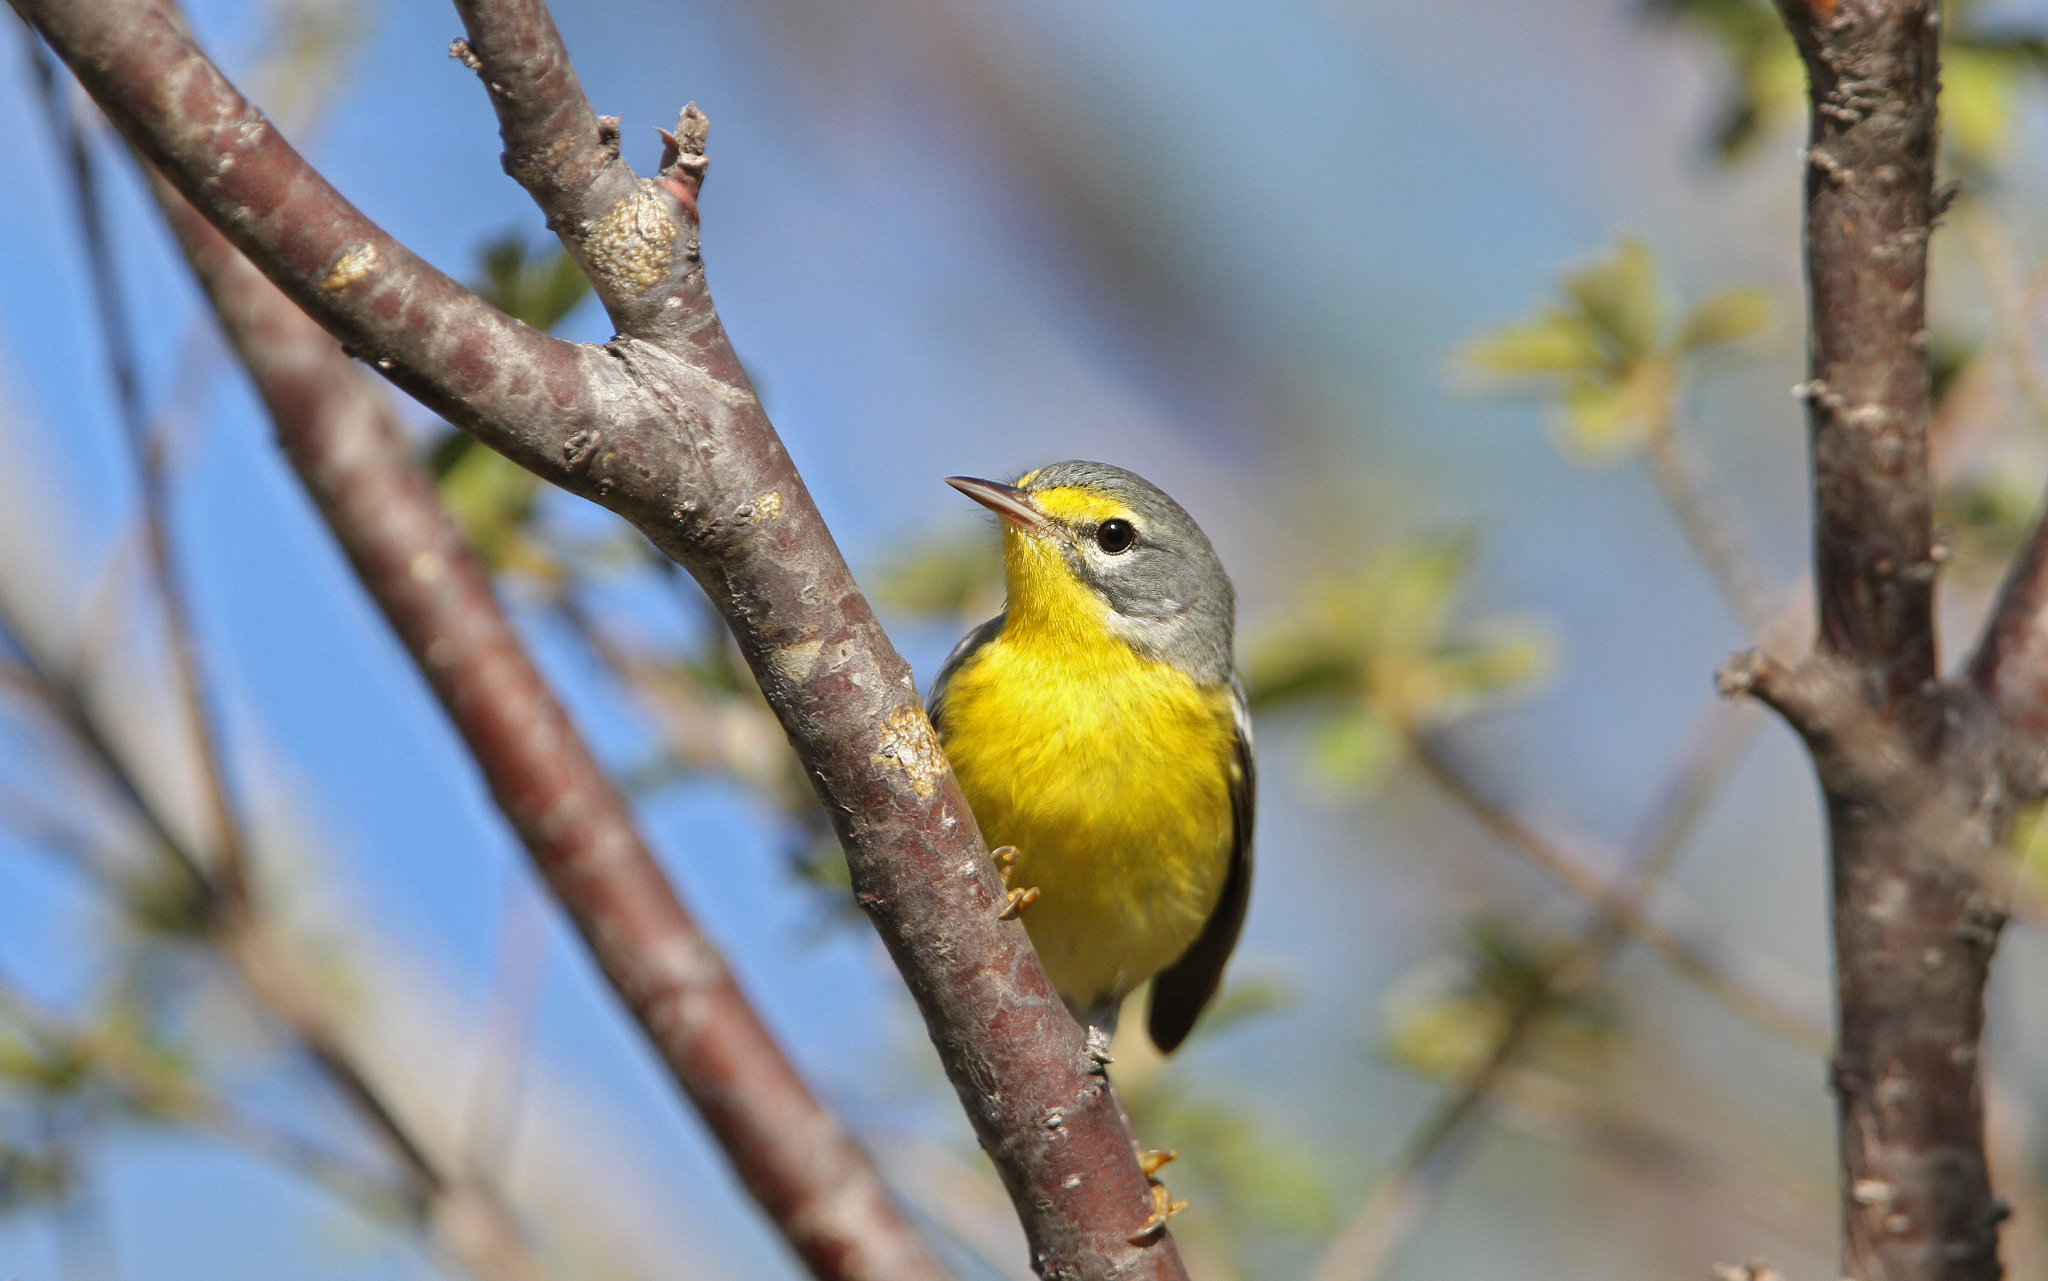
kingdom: Animalia
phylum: Chordata
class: Aves
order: Passeriformes
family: Parulidae
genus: Setophaga
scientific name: Setophaga adelaidae
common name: Adelaide's warbler
